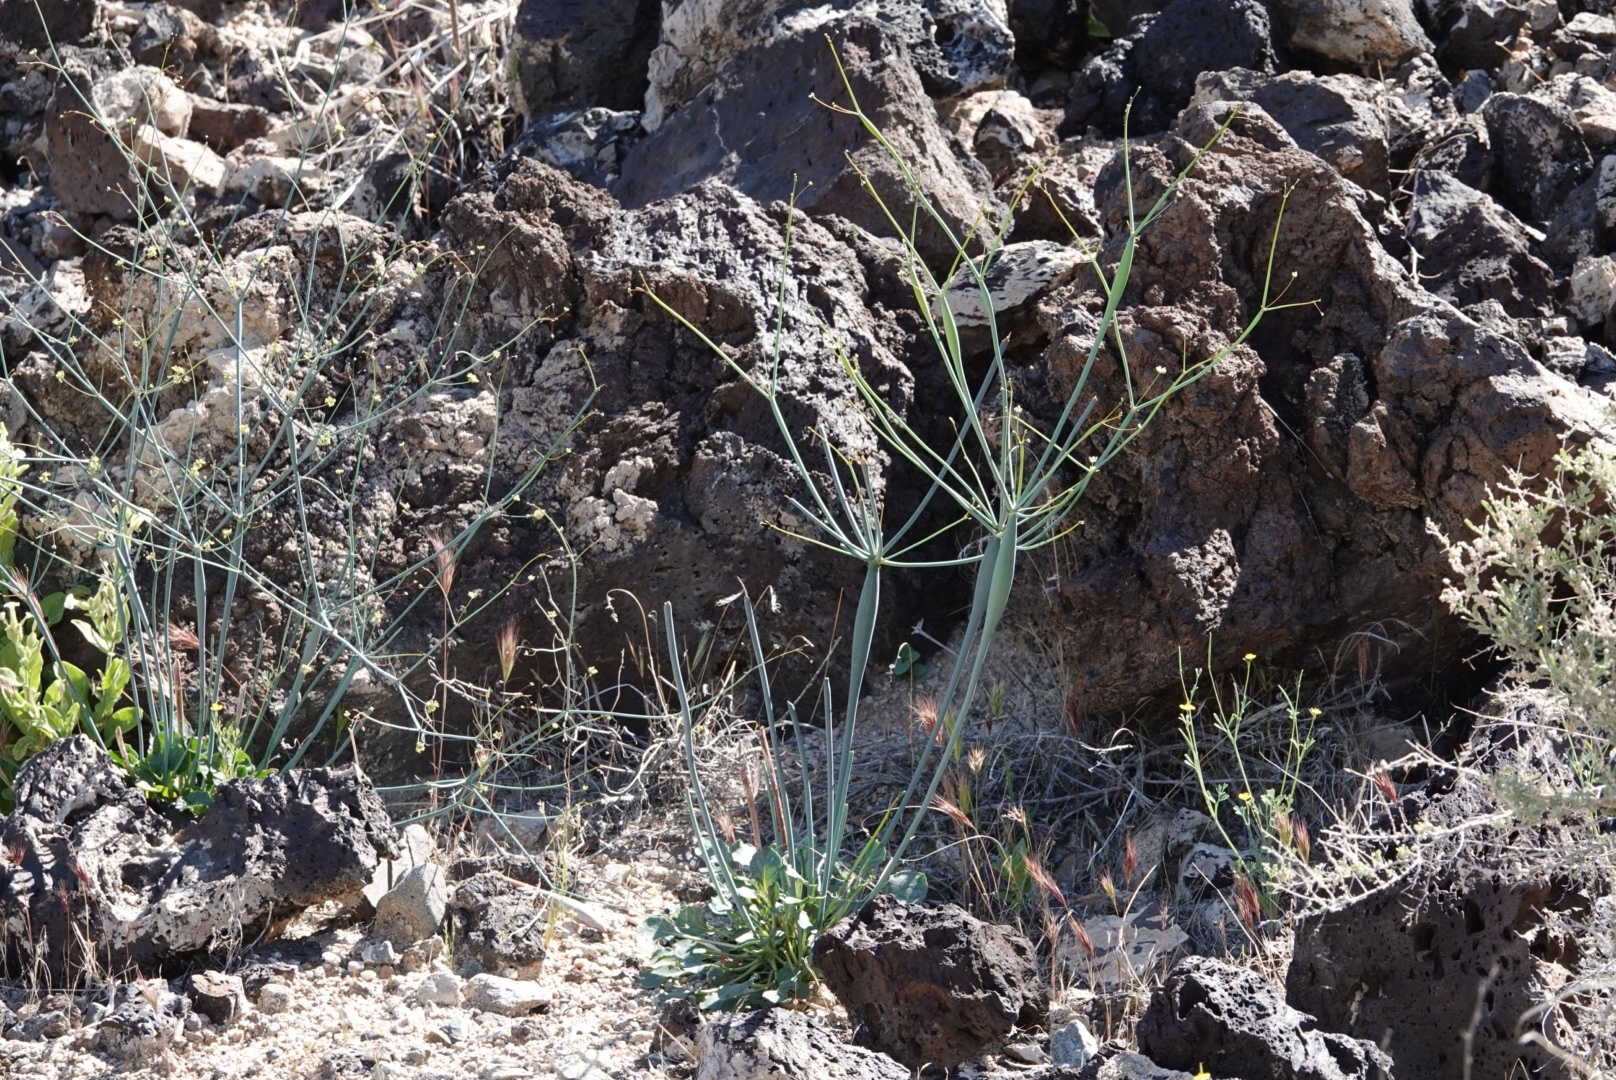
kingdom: Plantae
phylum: Tracheophyta
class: Magnoliopsida
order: Caryophyllales
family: Polygonaceae
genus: Eriogonum
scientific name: Eriogonum inflatum
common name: Desert trumpet
